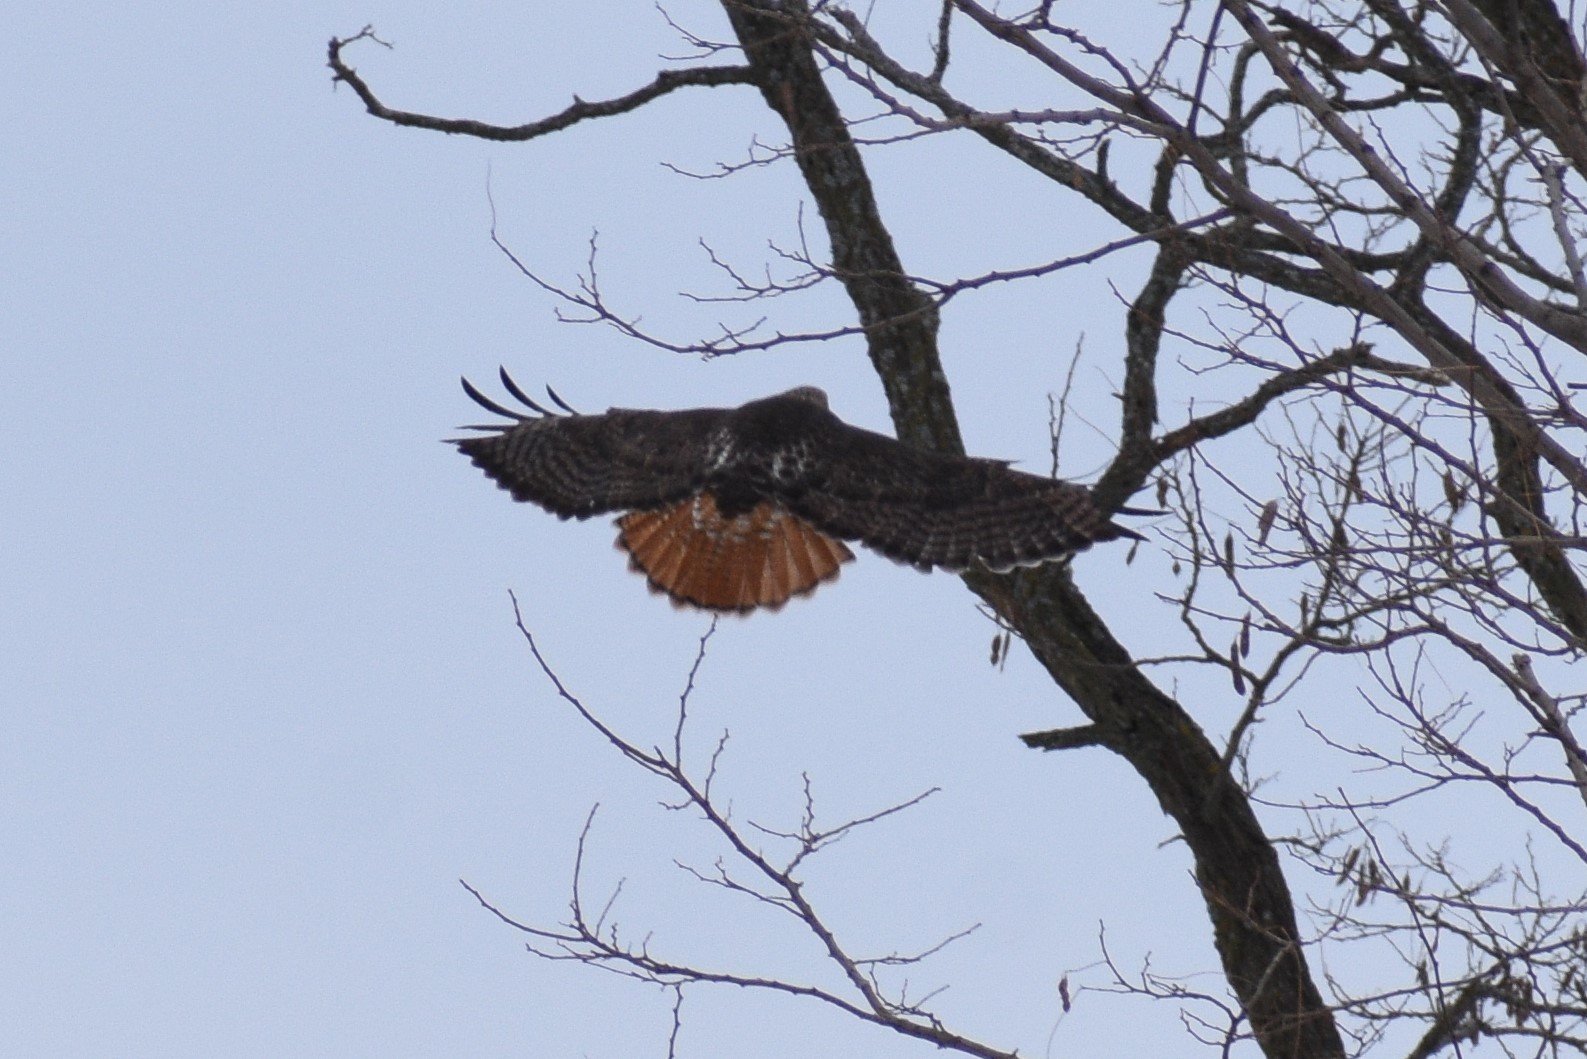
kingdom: Animalia
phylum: Chordata
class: Aves
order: Accipitriformes
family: Accipitridae
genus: Buteo
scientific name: Buteo jamaicensis
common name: Red-tailed hawk
